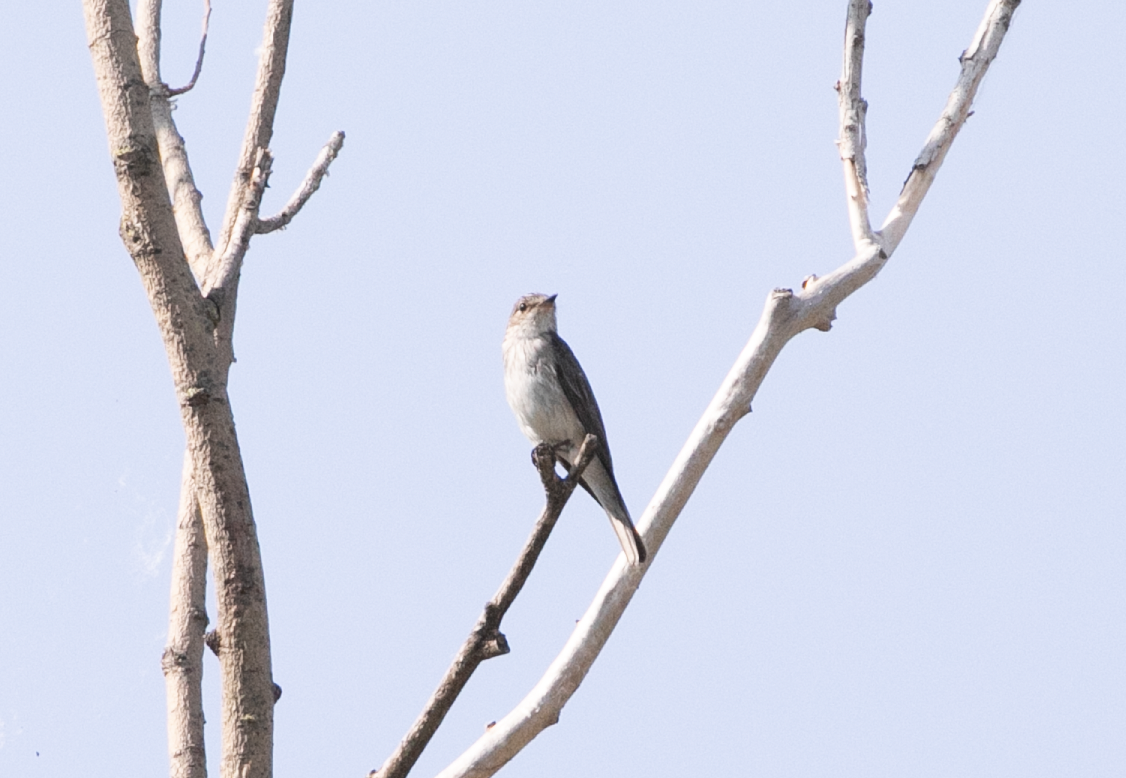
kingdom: Animalia
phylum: Chordata
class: Aves
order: Passeriformes
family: Muscicapidae
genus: Muscicapa
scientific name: Muscicapa striata
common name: Spotted flycatcher
